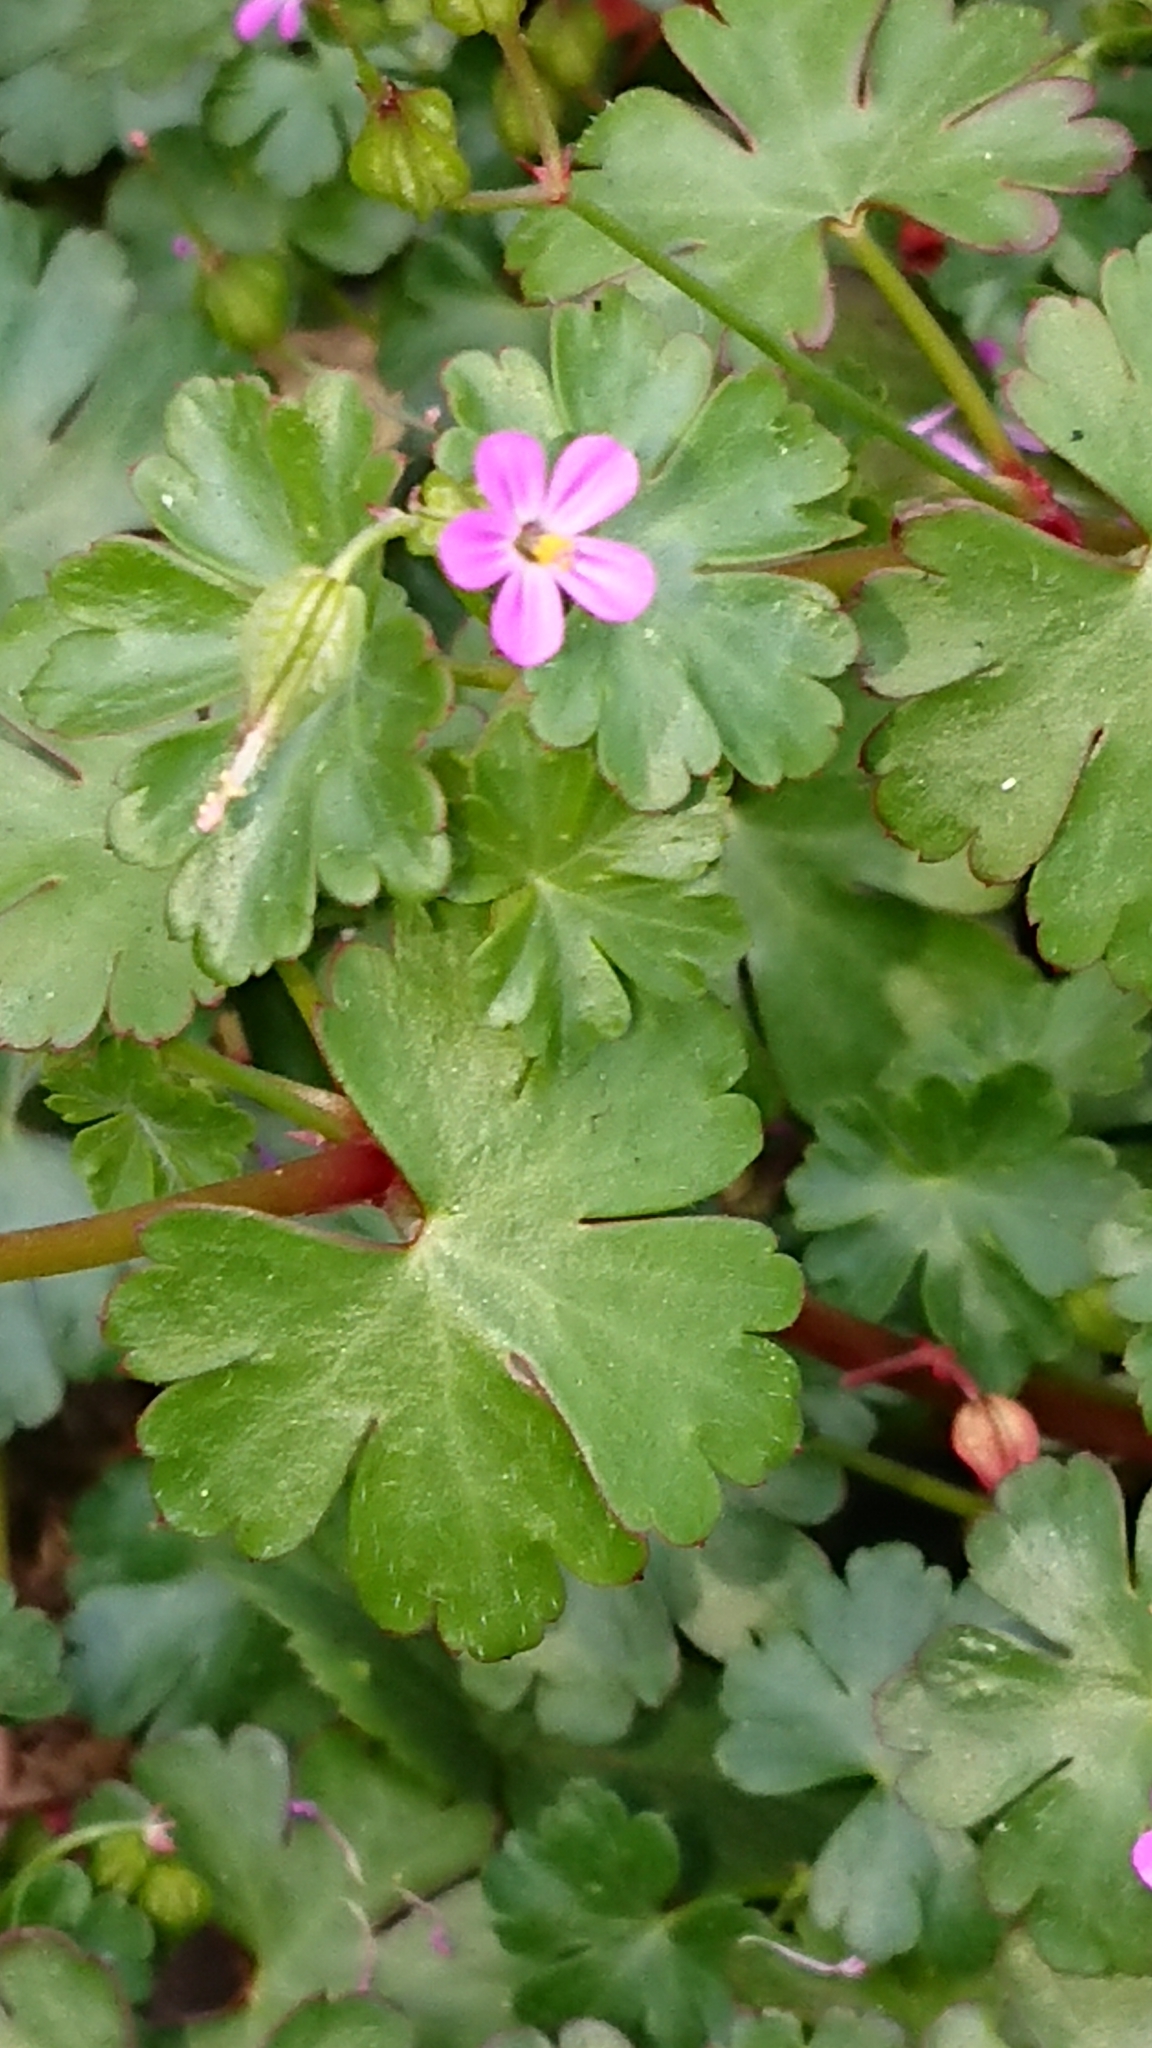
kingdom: Plantae
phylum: Tracheophyta
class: Magnoliopsida
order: Geraniales
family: Geraniaceae
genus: Geranium
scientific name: Geranium lucidum
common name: Shining crane's-bill
